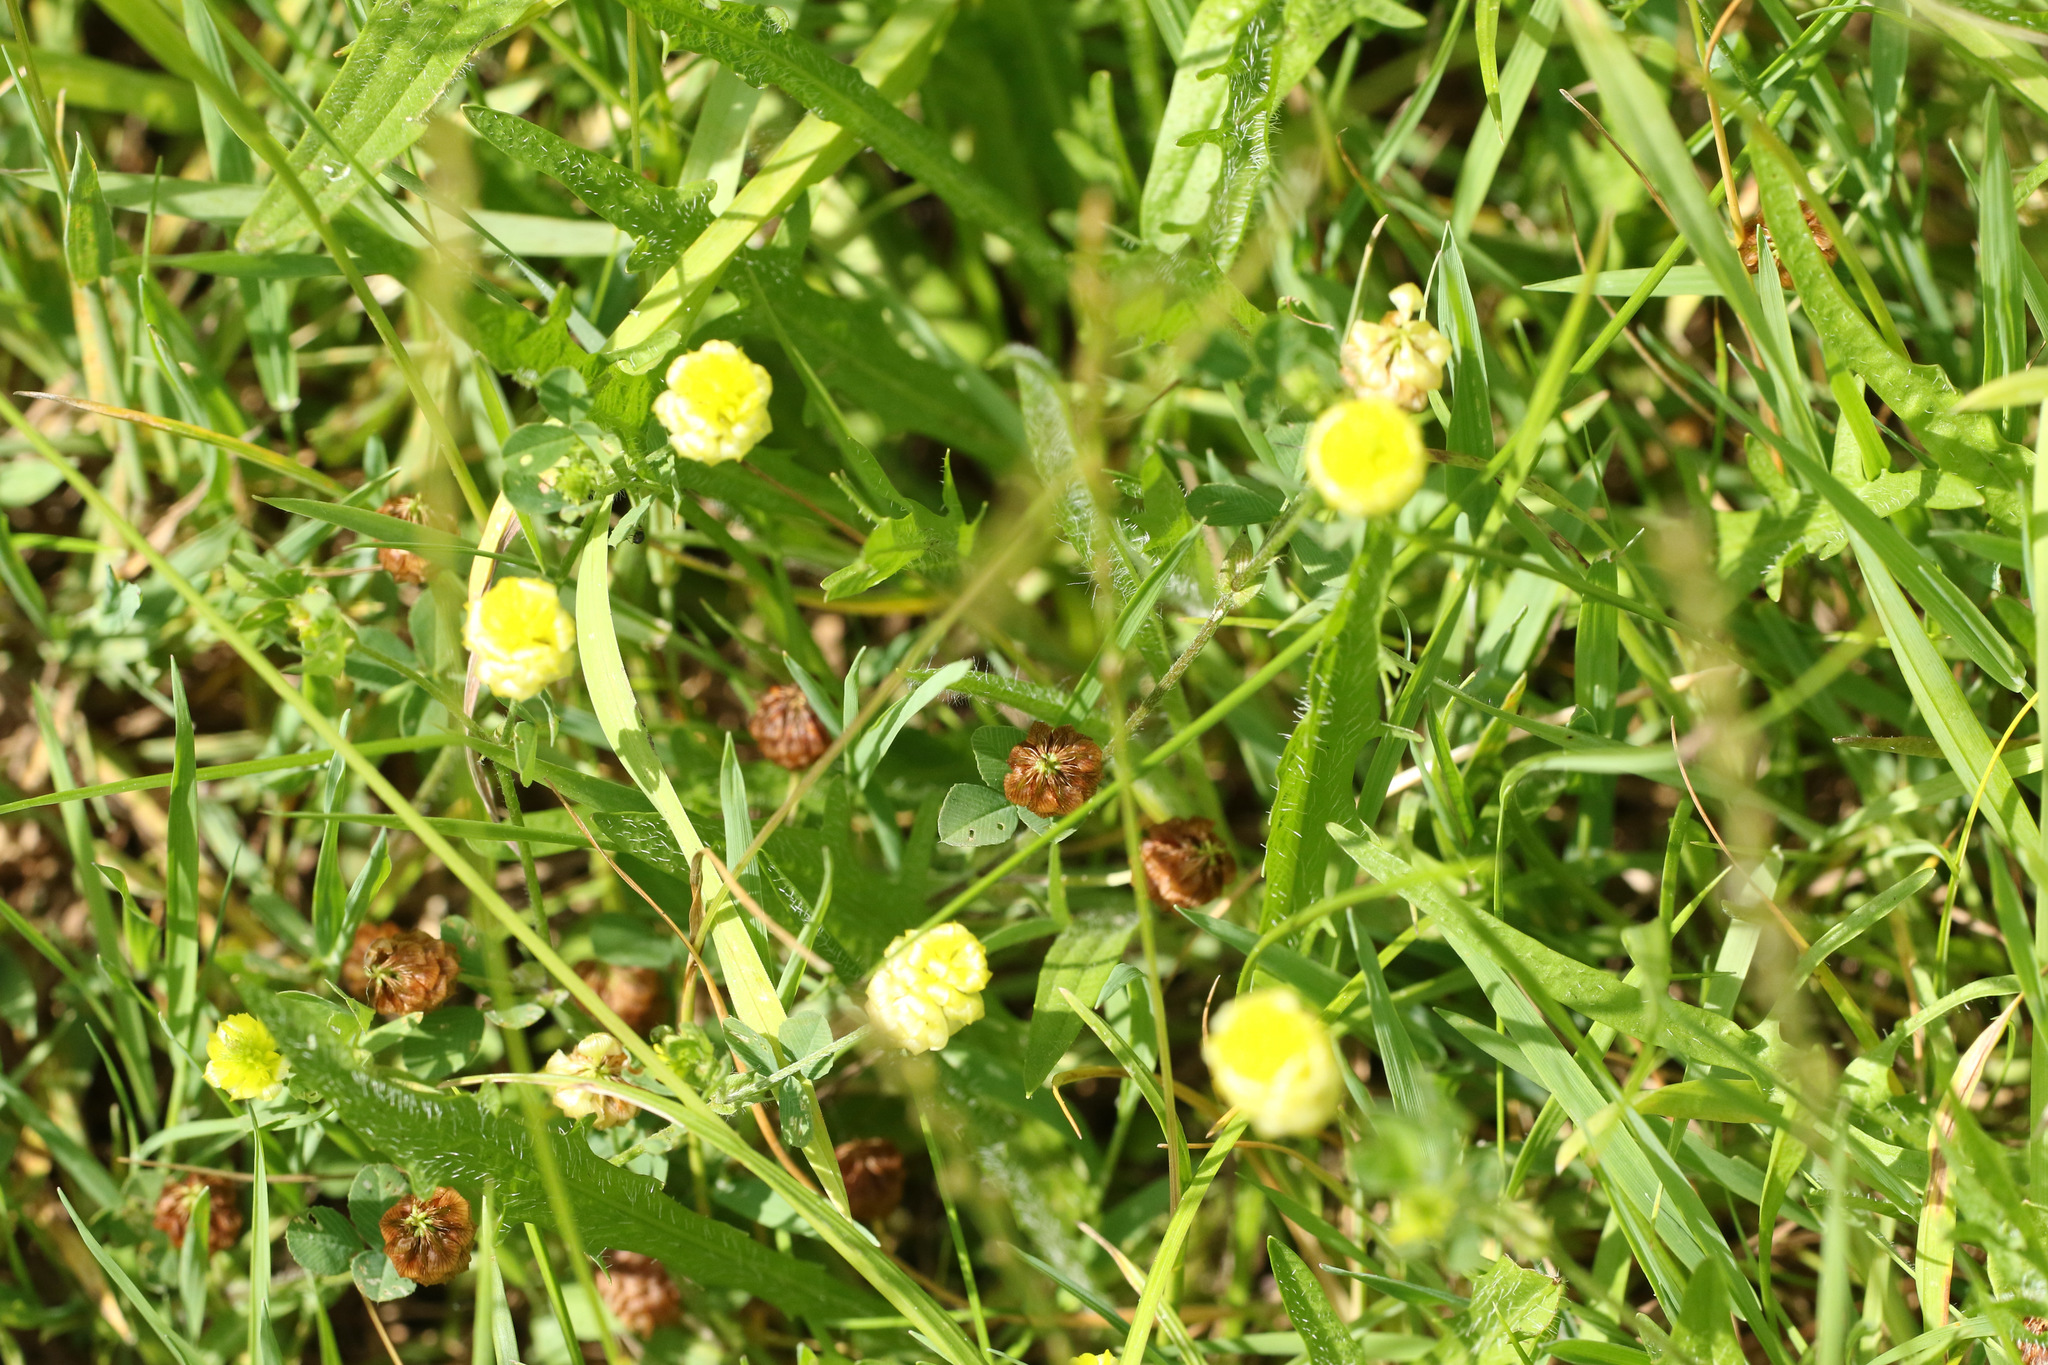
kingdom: Plantae
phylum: Tracheophyta
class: Magnoliopsida
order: Fabales
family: Fabaceae
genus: Trifolium
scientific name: Trifolium campestre
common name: Field clover
